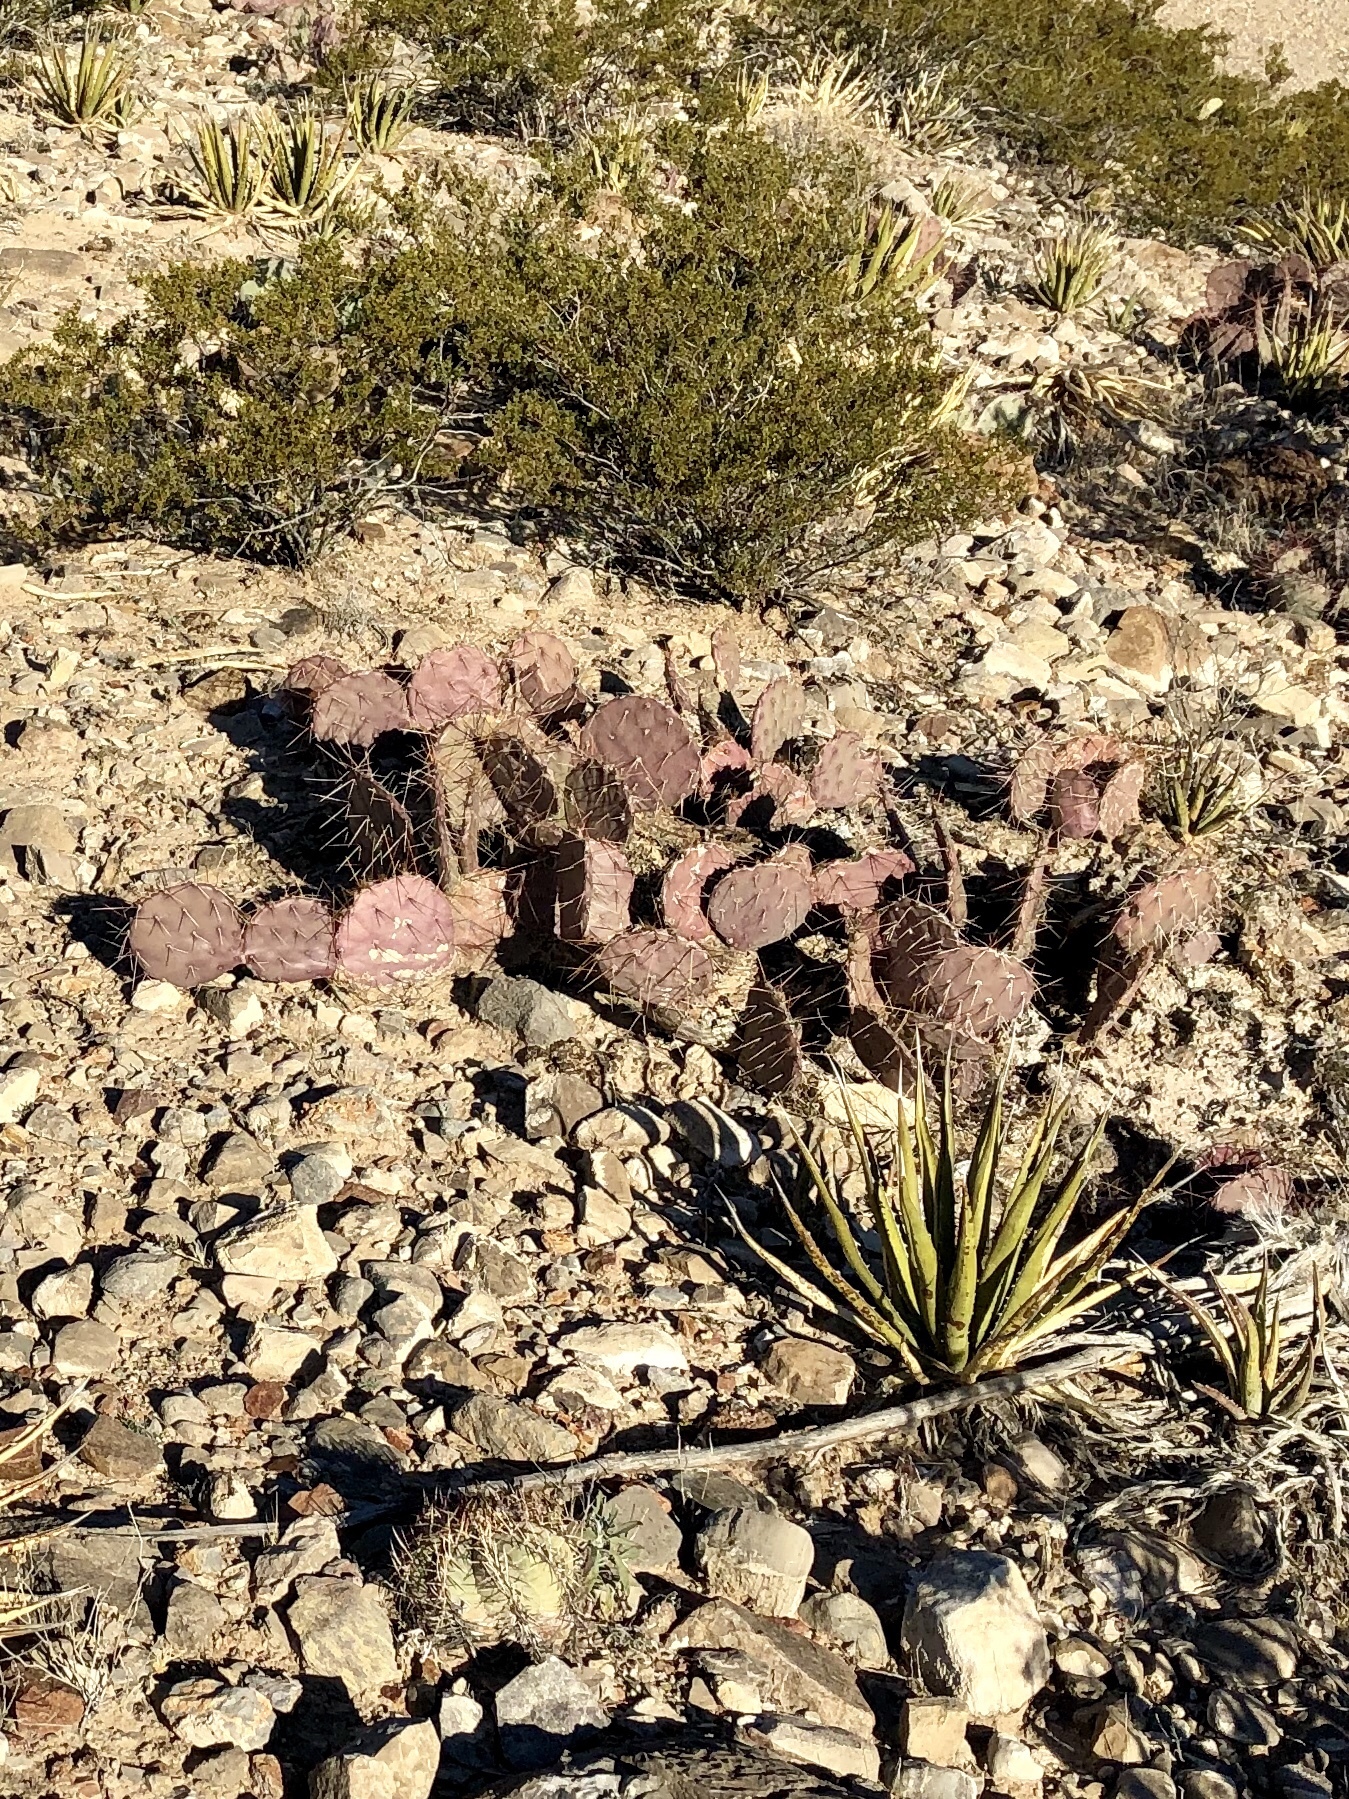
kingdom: Plantae
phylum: Tracheophyta
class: Magnoliopsida
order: Caryophyllales
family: Cactaceae
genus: Opuntia
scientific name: Opuntia phaeacantha
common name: New mexico prickly-pear
